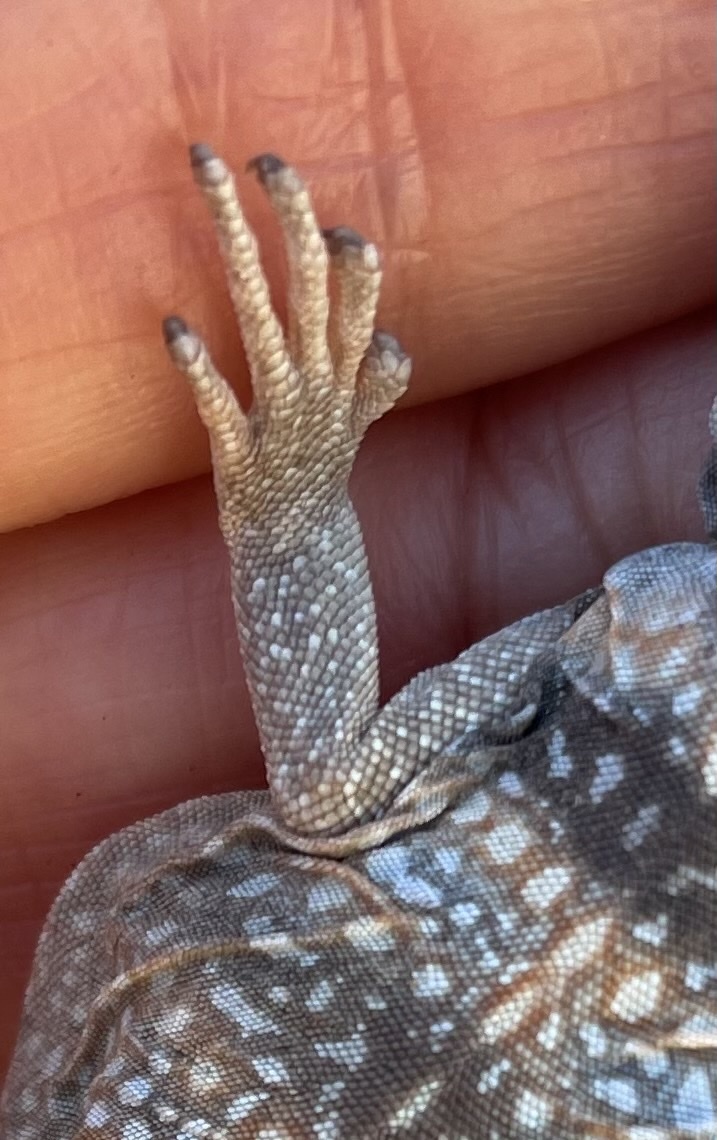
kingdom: Animalia
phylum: Chordata
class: Squamata
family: Iguanidae
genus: Sauromalus
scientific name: Sauromalus ater
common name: Northern chuckwalla
